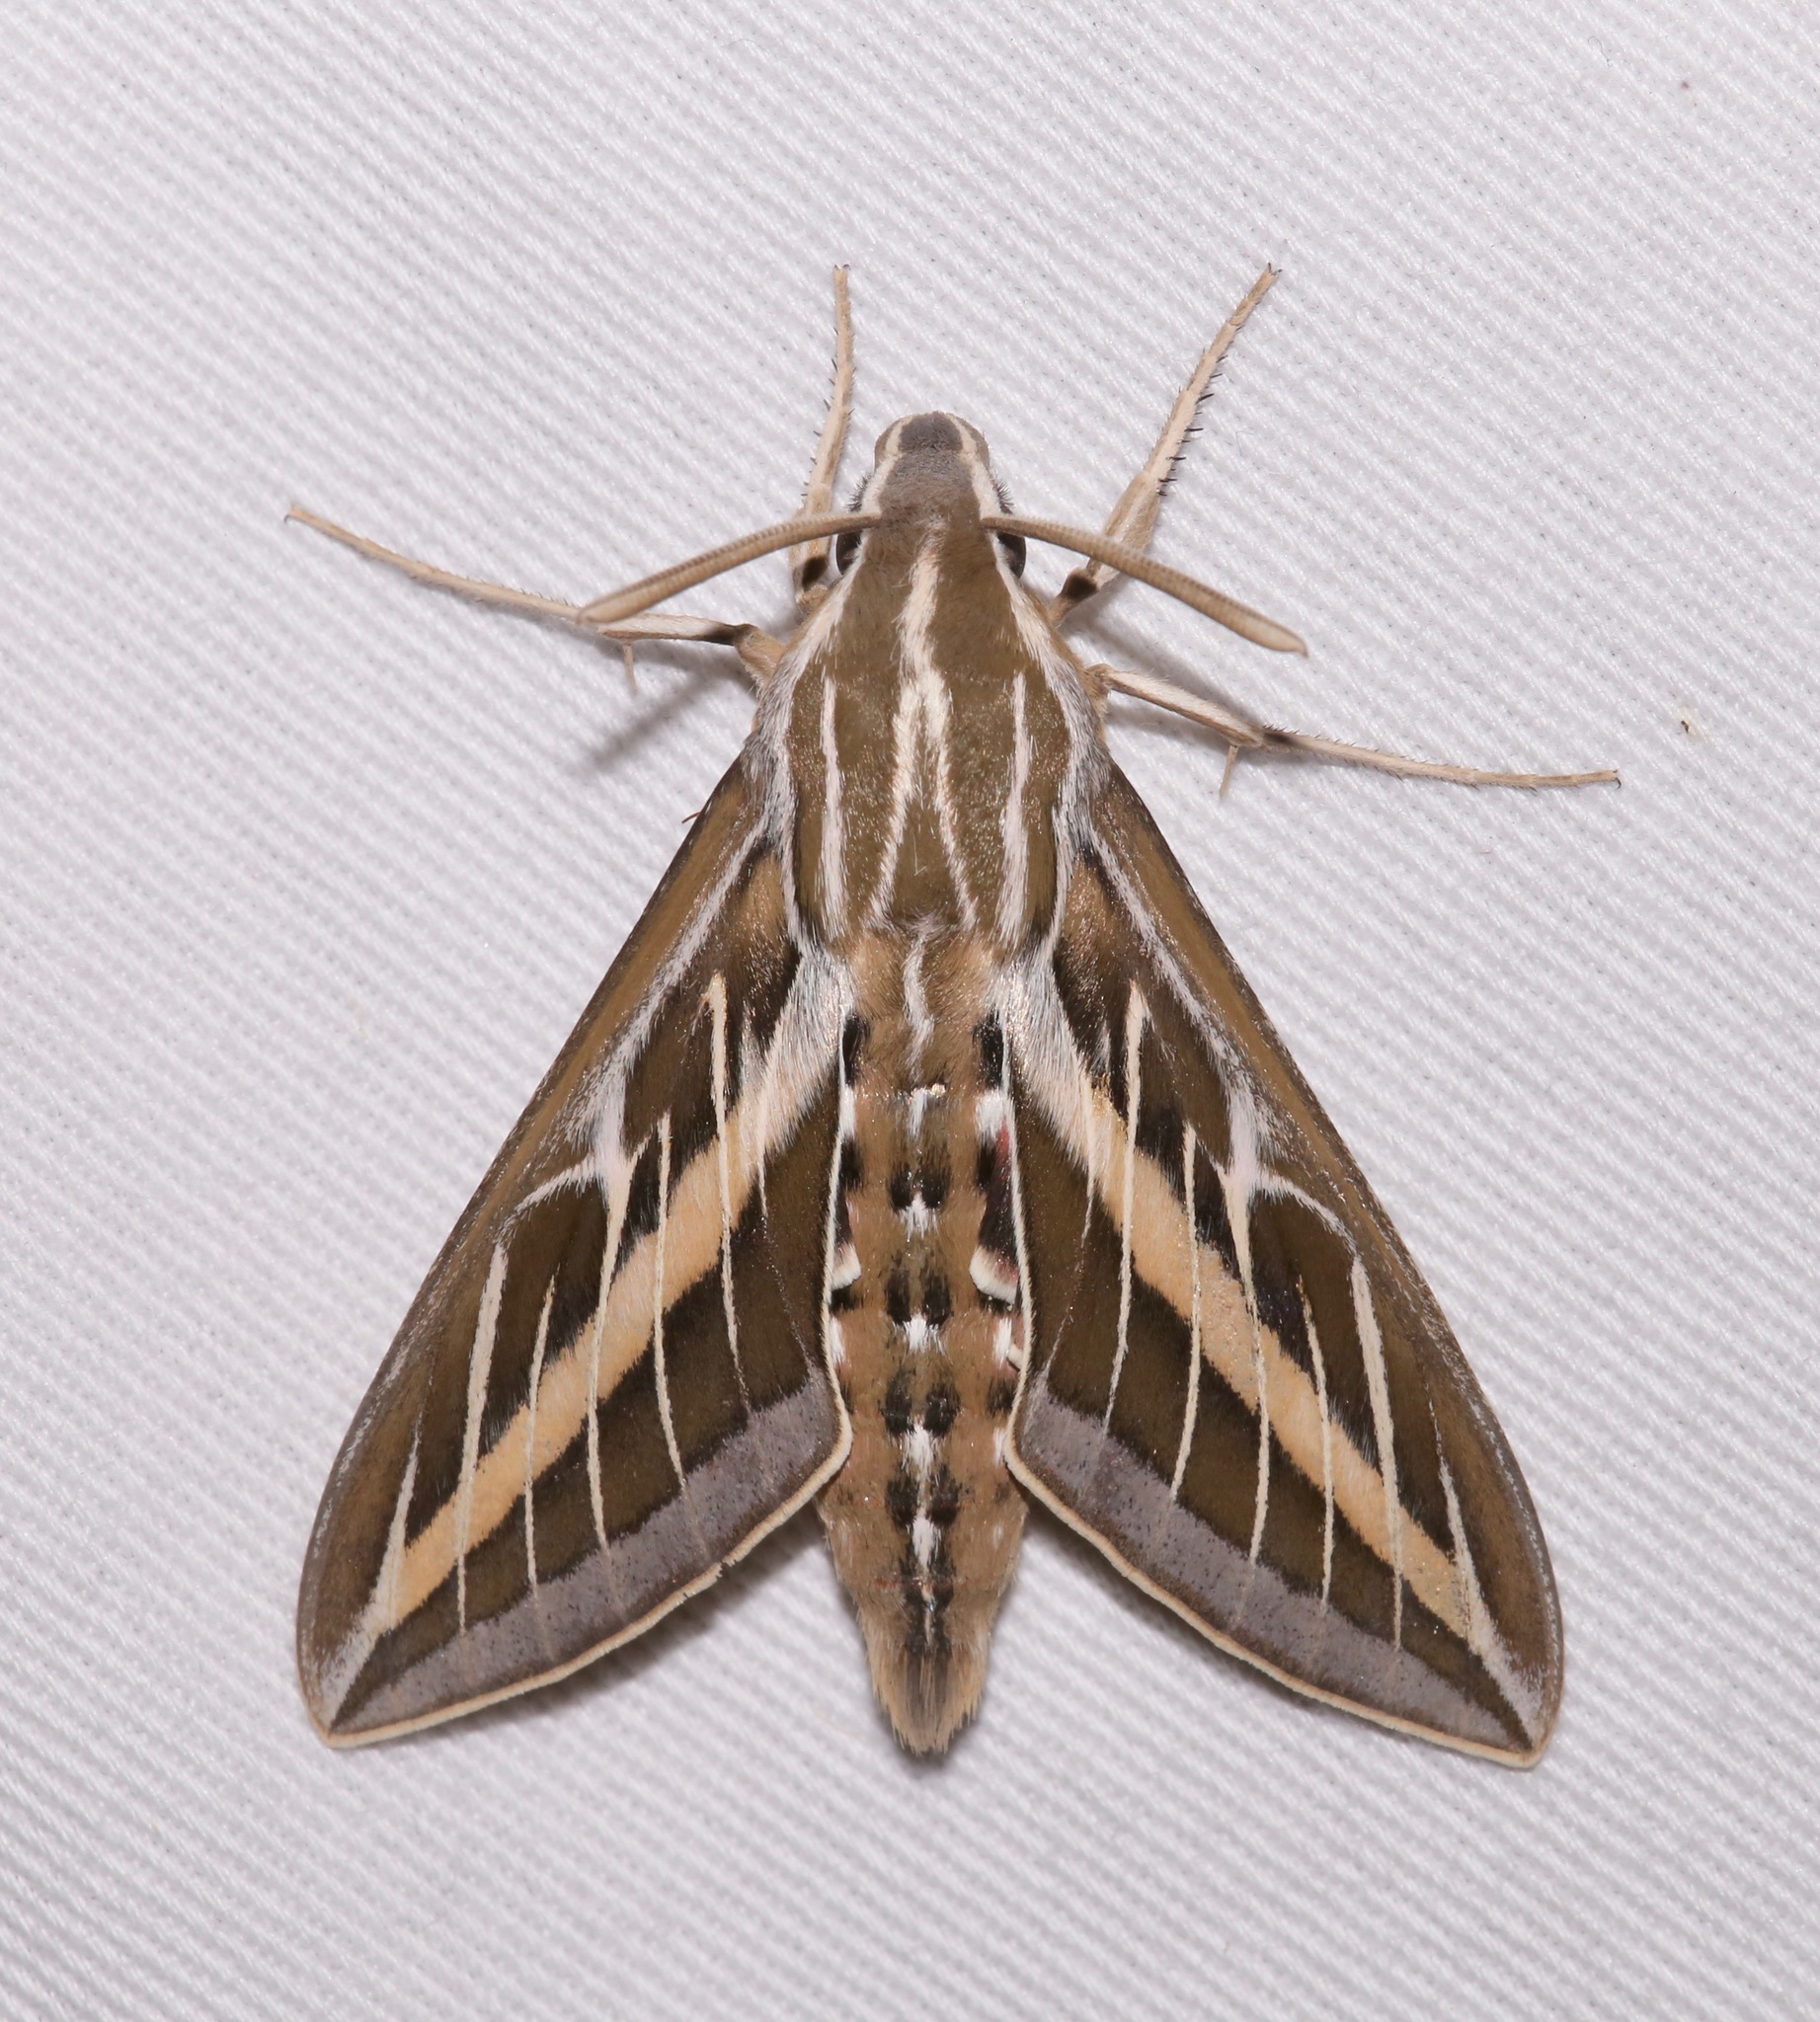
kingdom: Animalia
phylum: Arthropoda
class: Insecta
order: Lepidoptera
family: Sphingidae
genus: Hyles
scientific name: Hyles lineata
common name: White-lined sphinx
